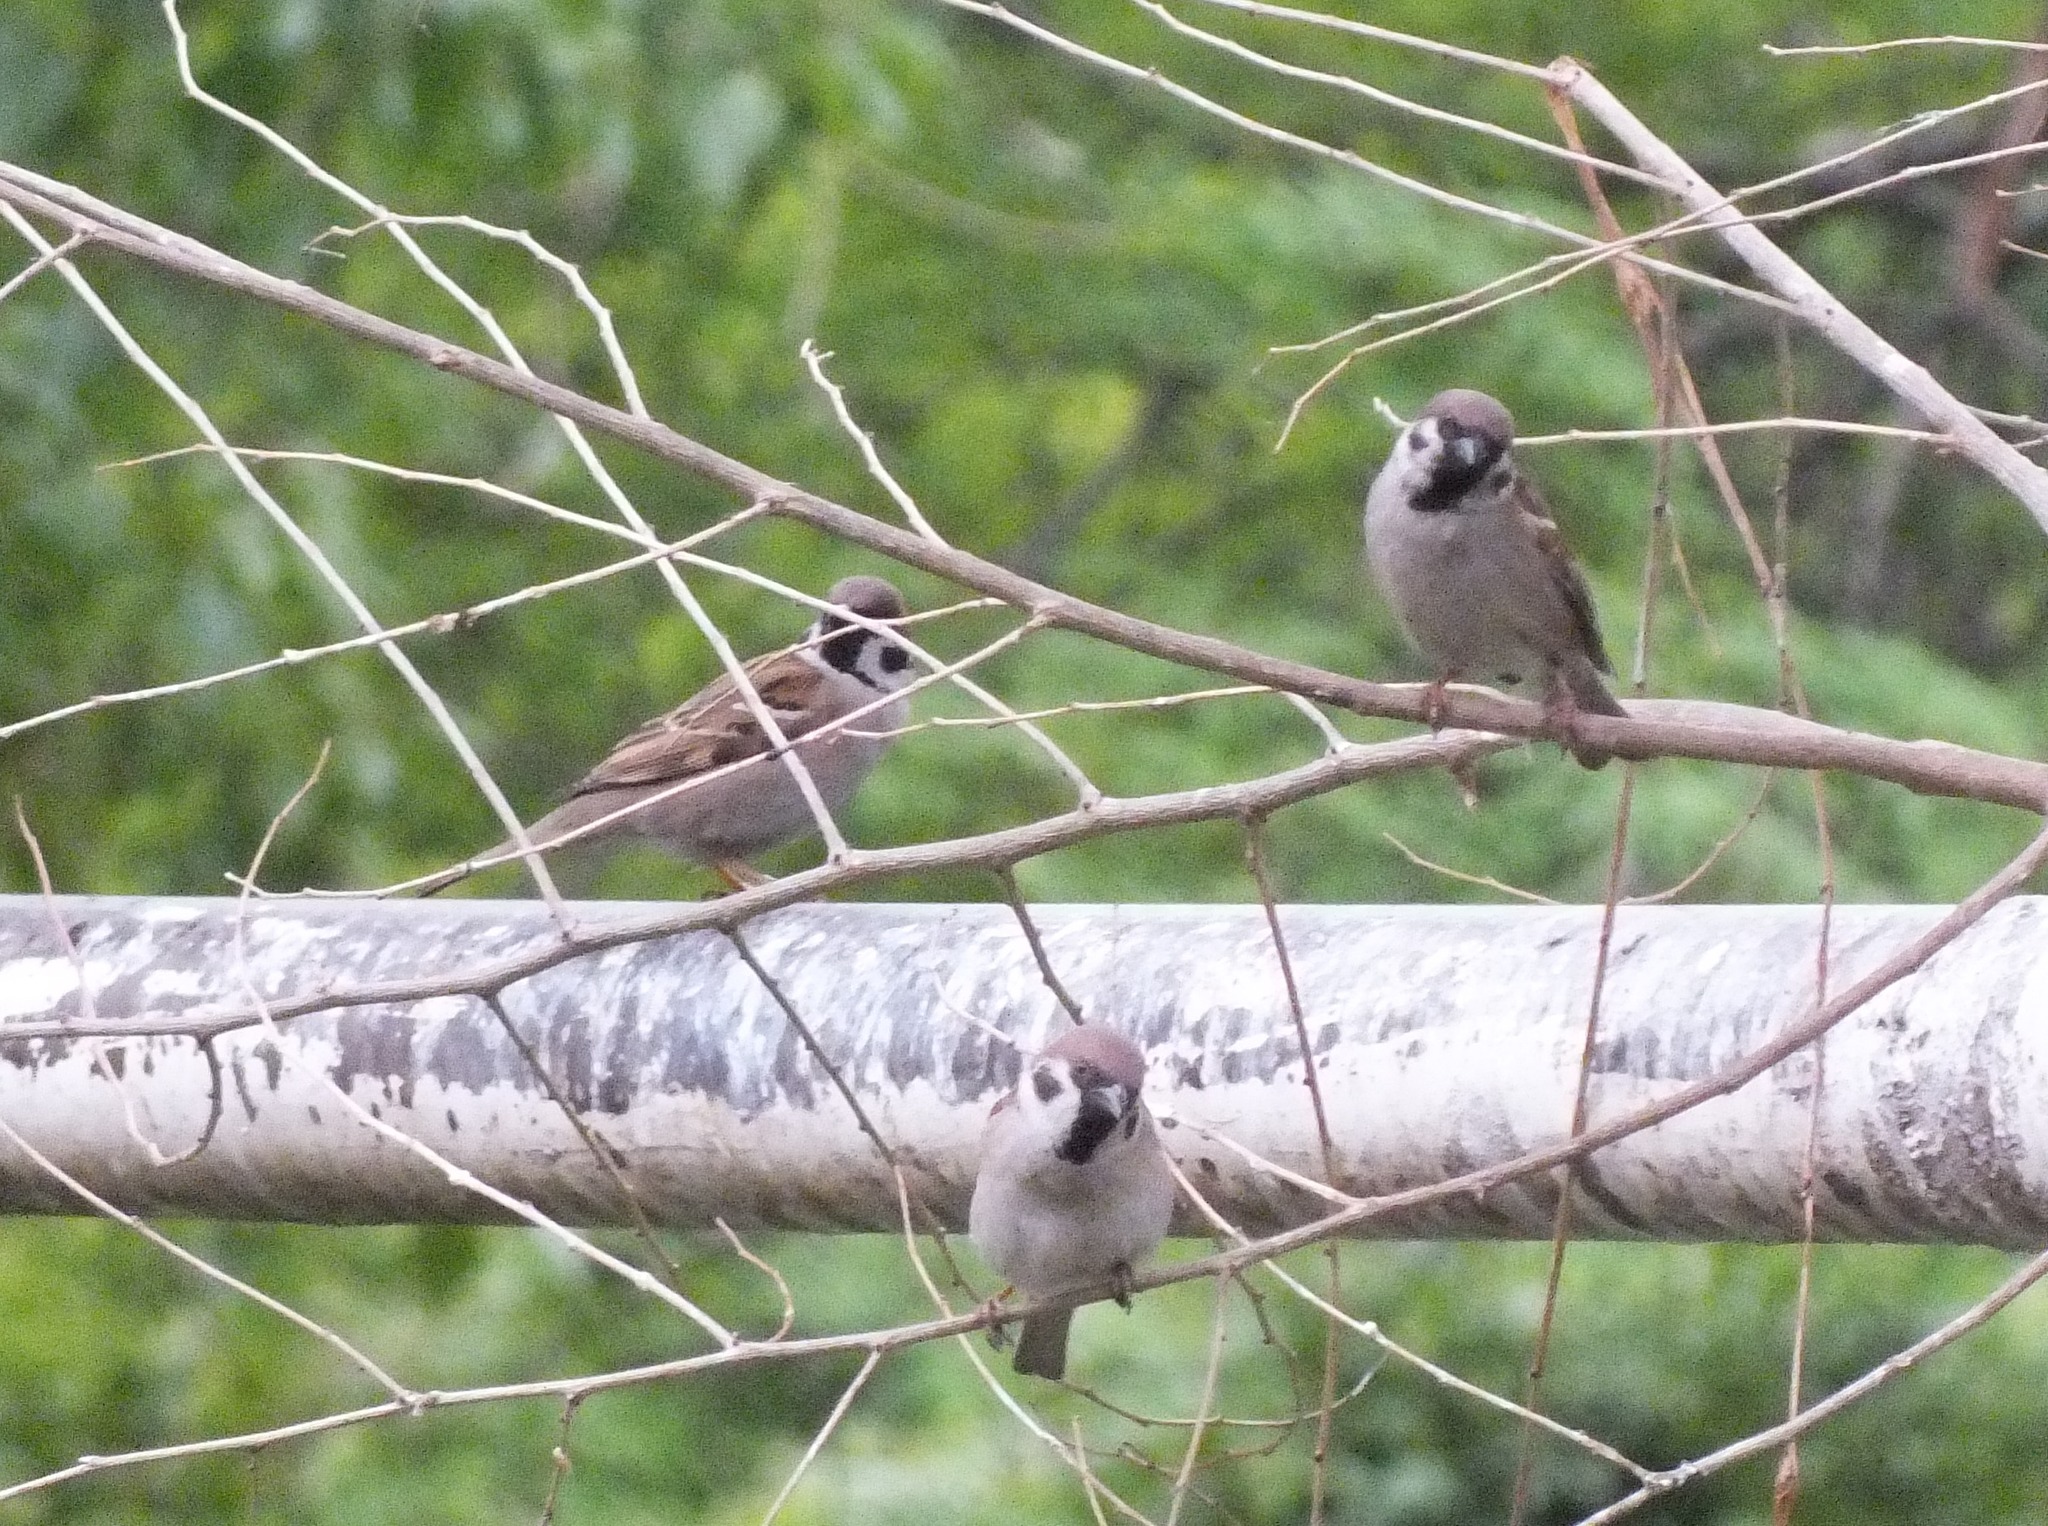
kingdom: Animalia
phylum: Chordata
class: Aves
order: Passeriformes
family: Passeridae
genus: Passer
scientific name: Passer montanus
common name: Eurasian tree sparrow
